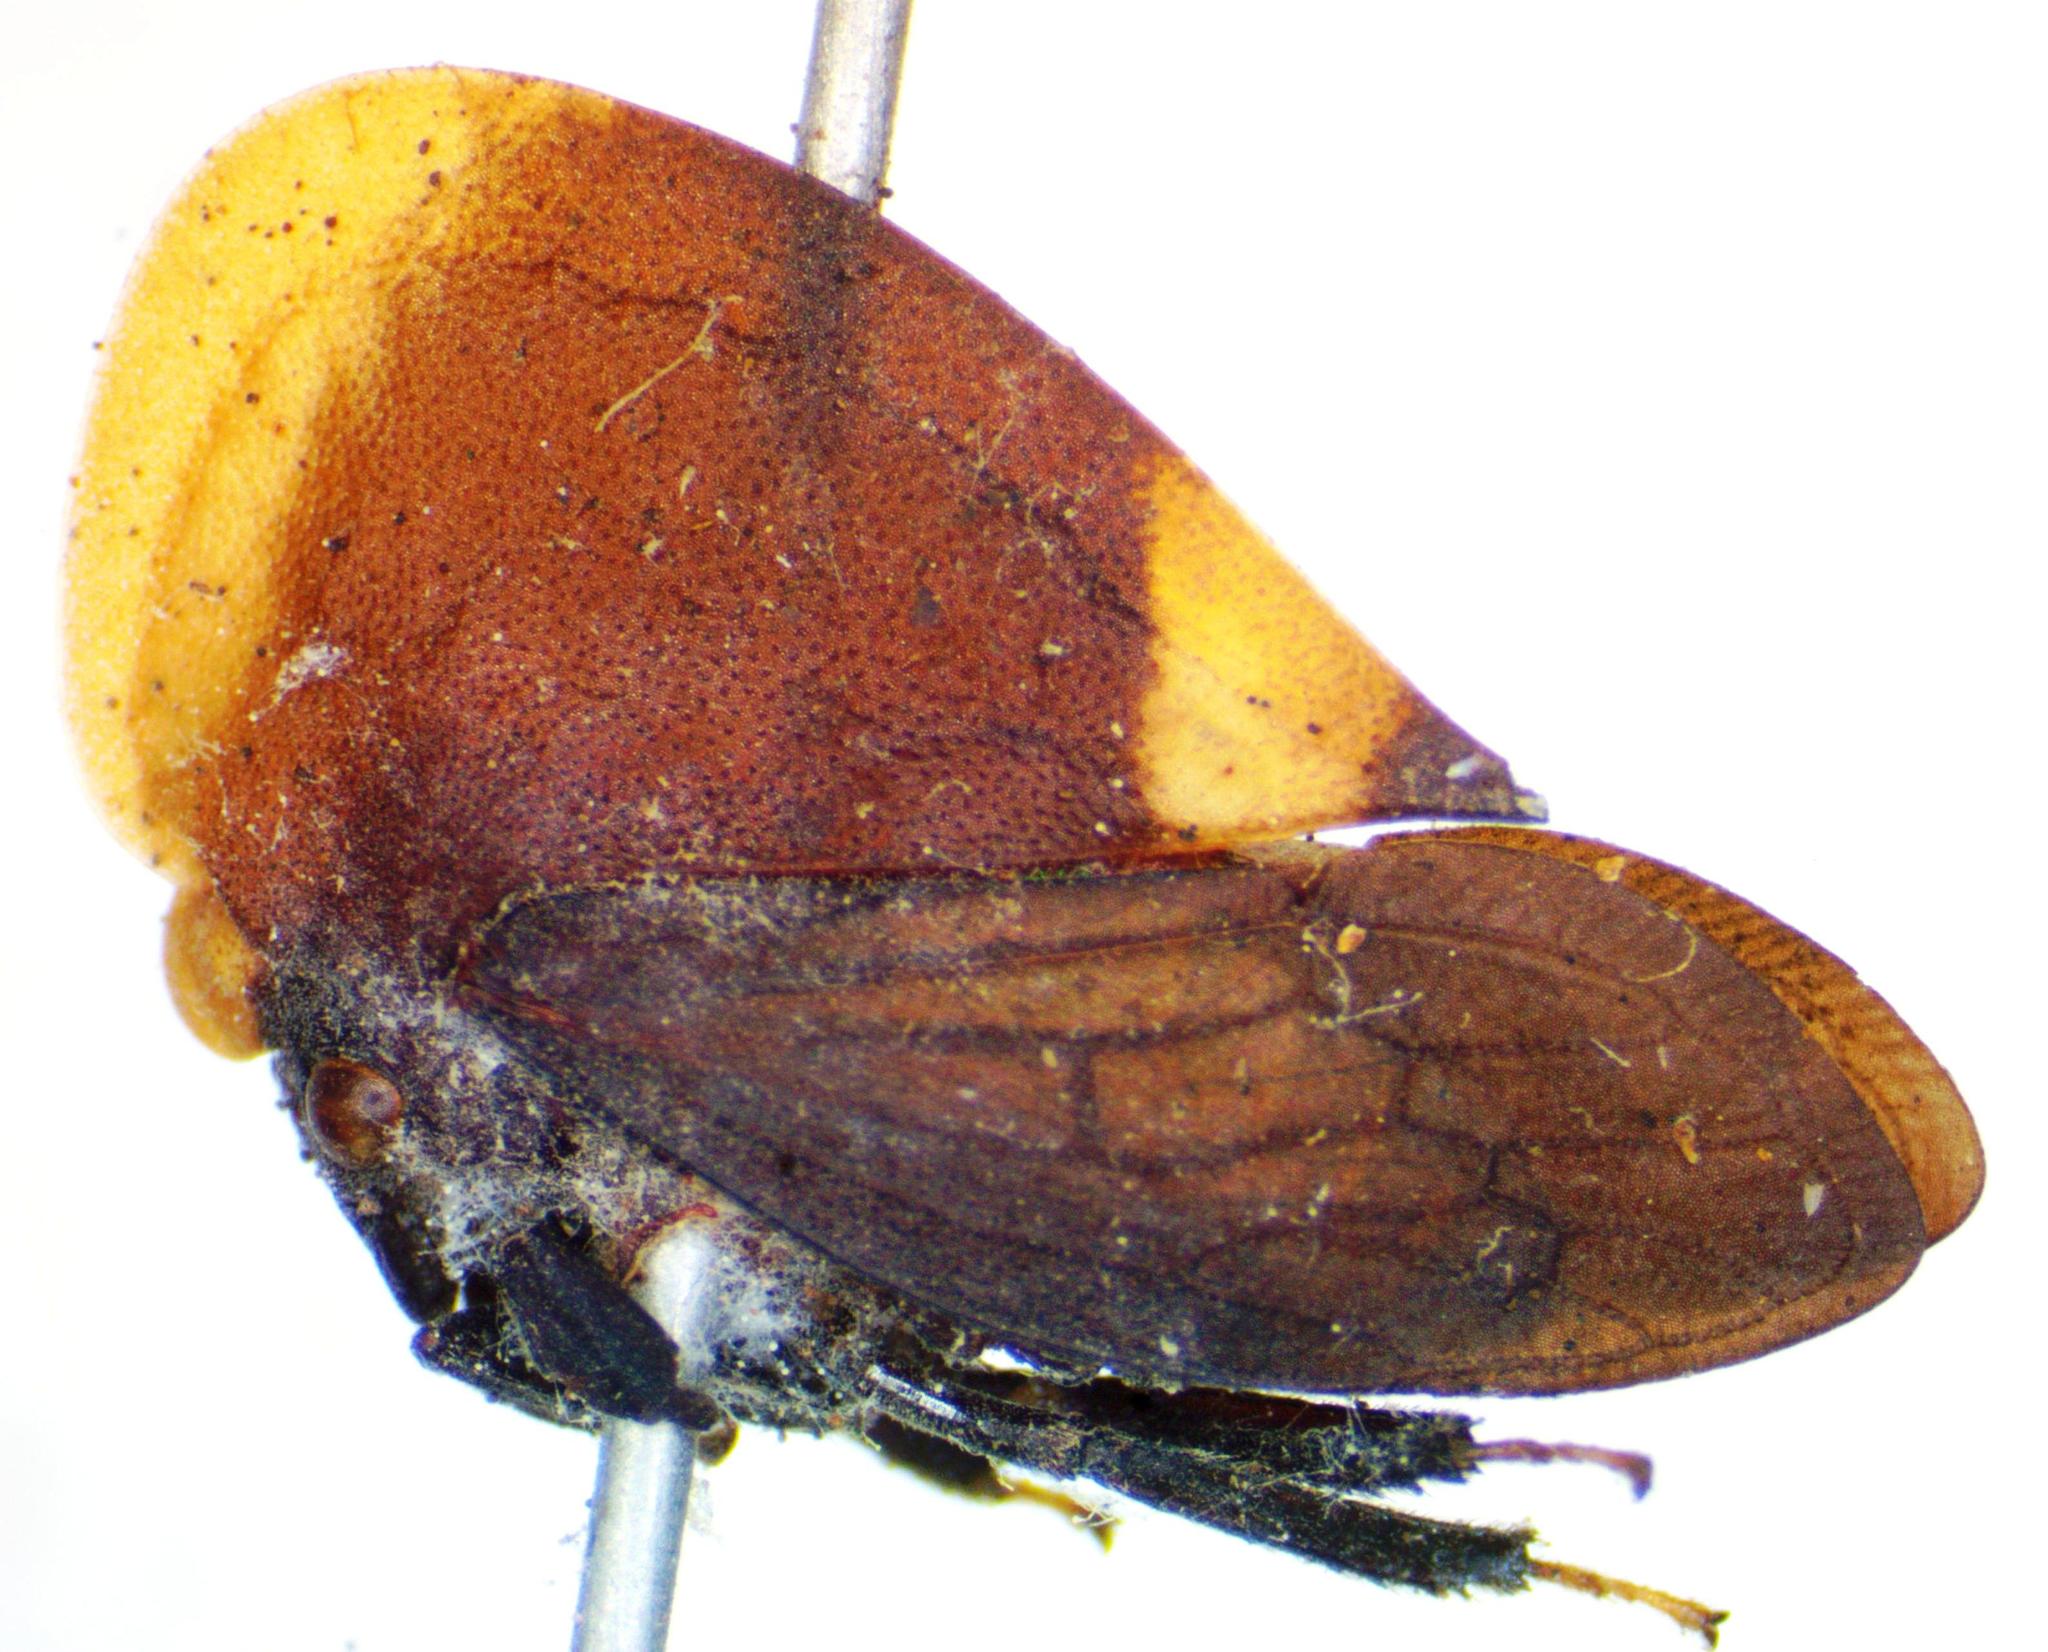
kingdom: Animalia
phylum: Arthropoda
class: Insecta
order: Hemiptera
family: Membracidae
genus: Membracis
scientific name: Membracis dorsata
